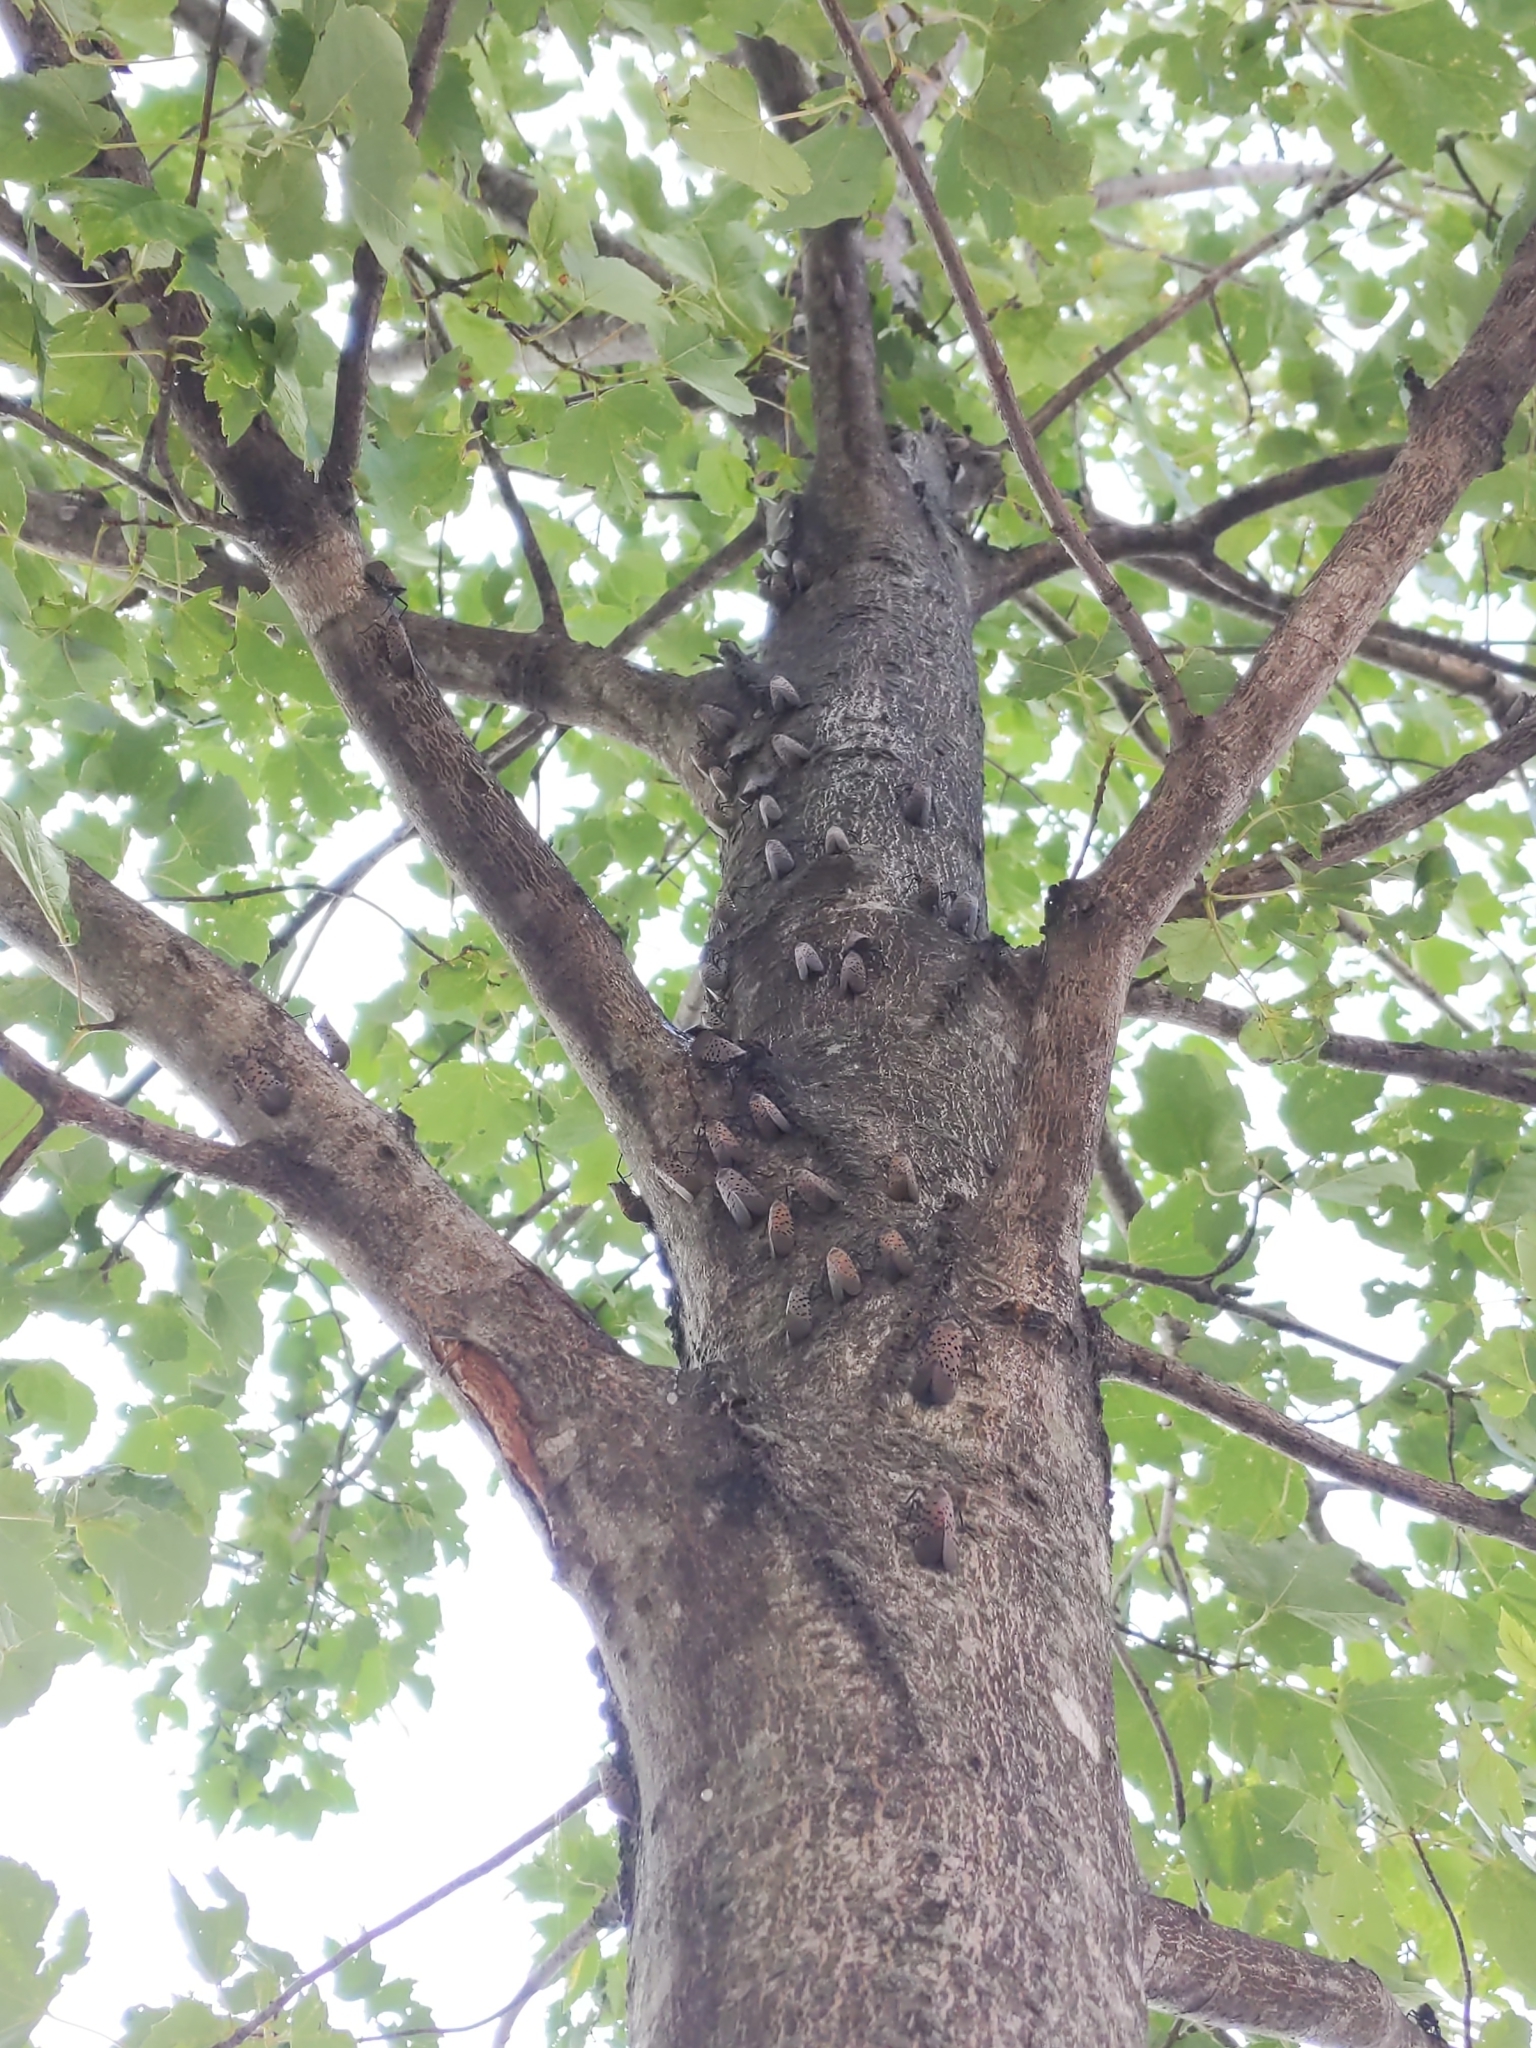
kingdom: Animalia
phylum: Arthropoda
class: Insecta
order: Hemiptera
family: Fulgoridae
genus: Lycorma
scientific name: Lycorma delicatula
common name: Spotted lanternfly
